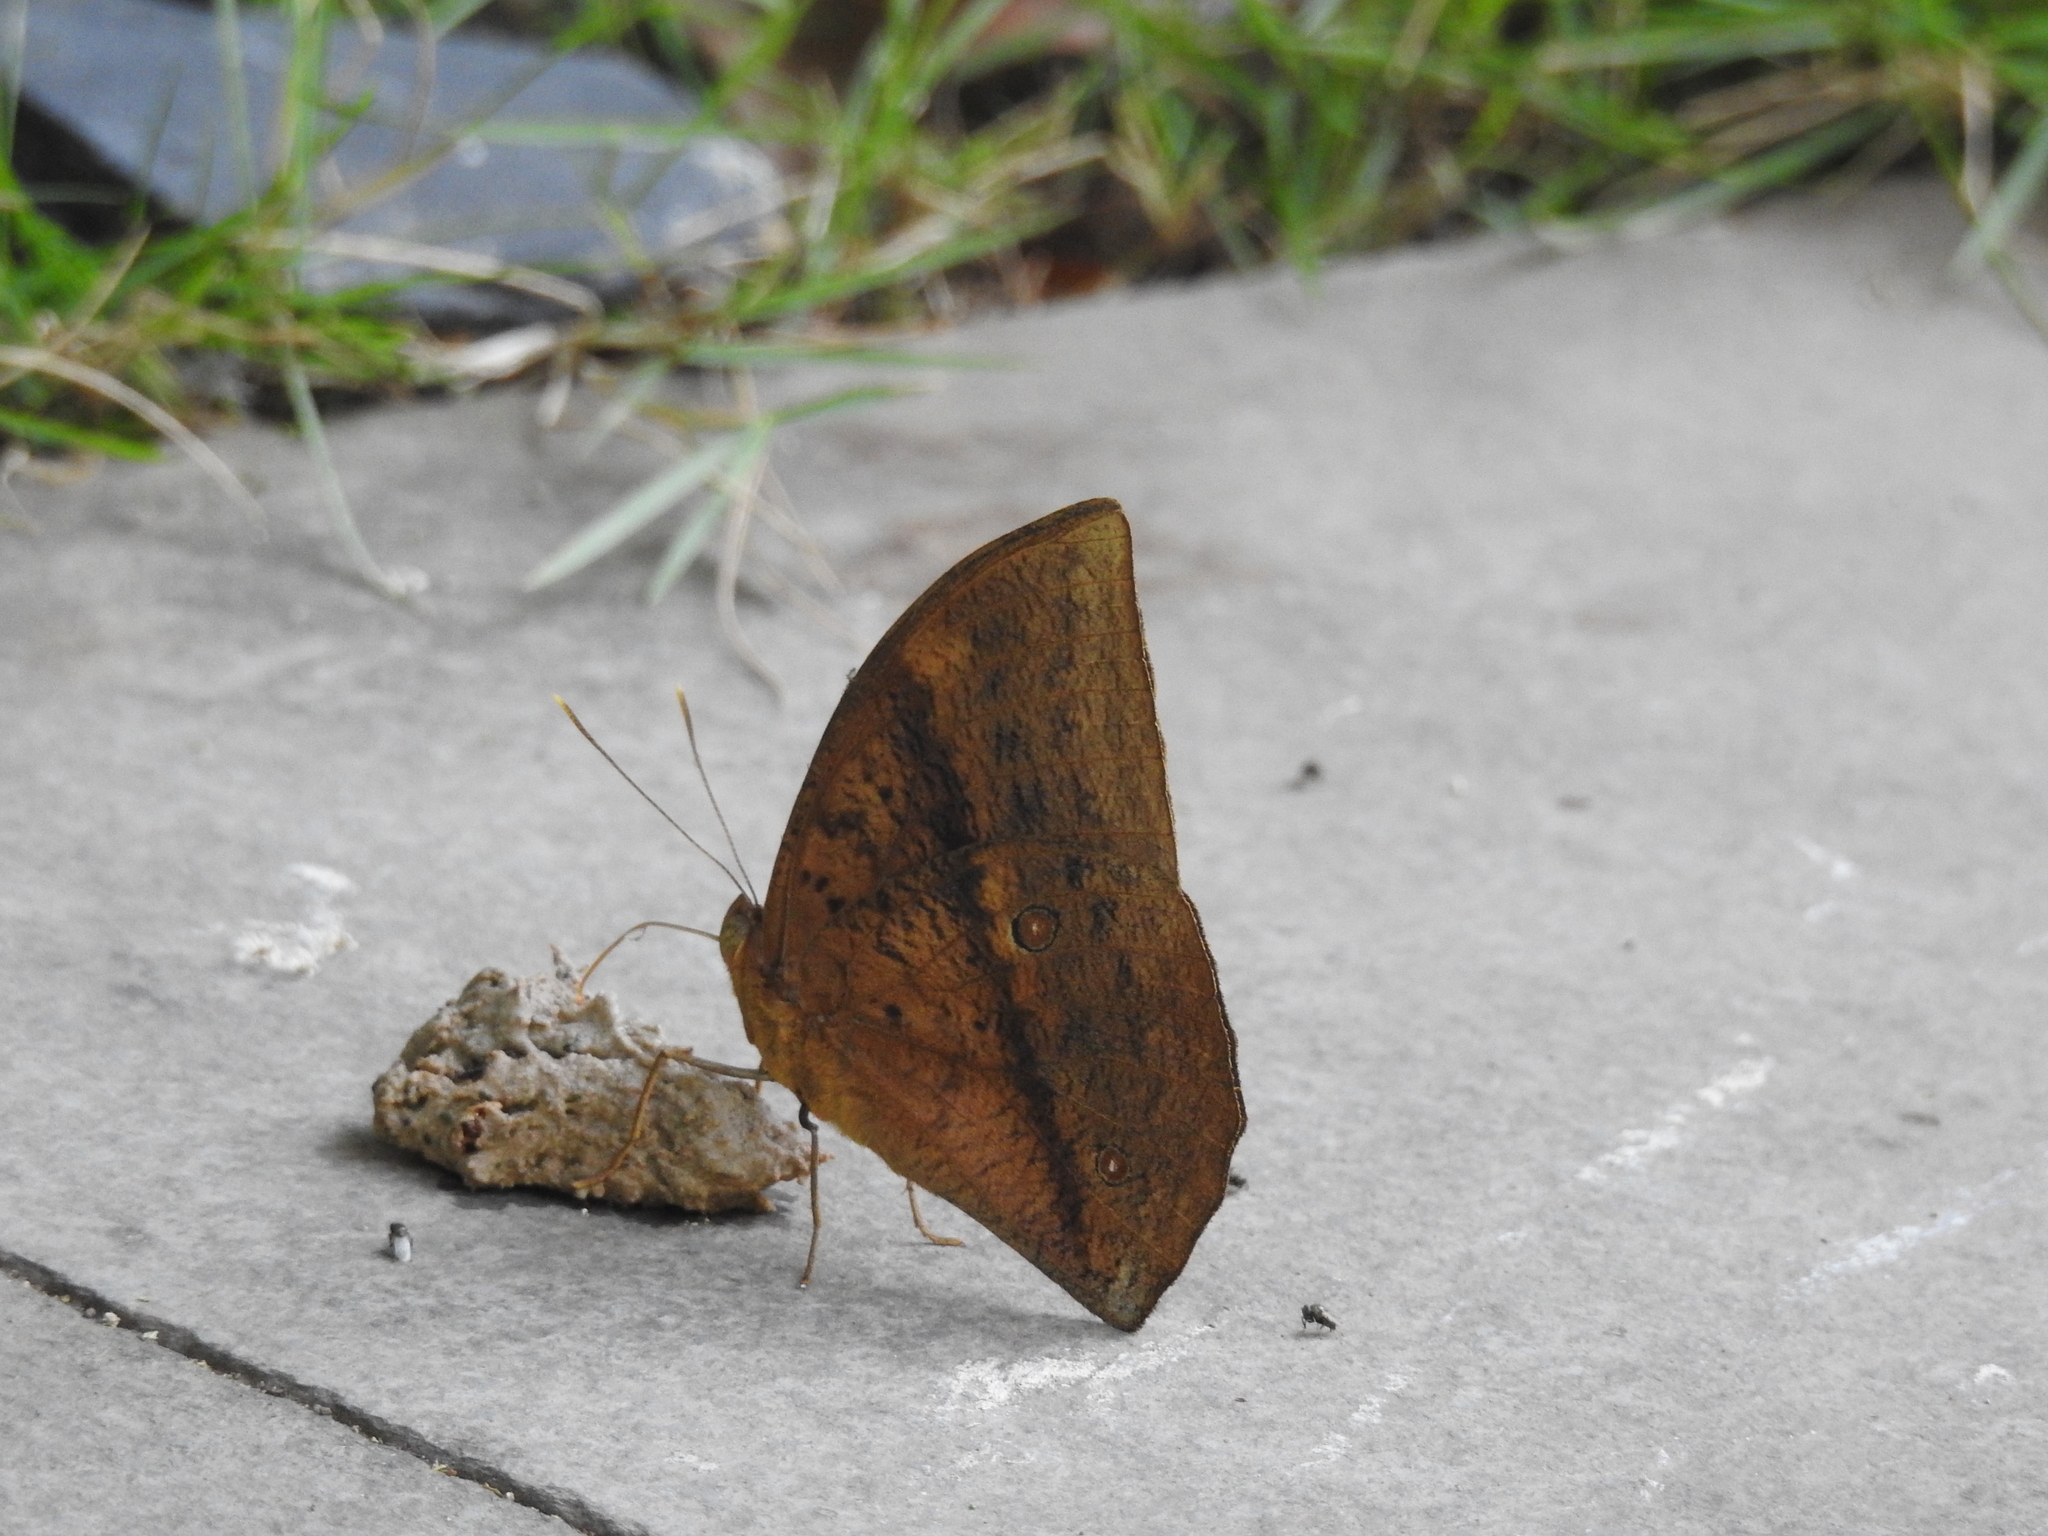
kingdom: Animalia
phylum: Arthropoda
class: Insecta
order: Lepidoptera
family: Nymphalidae
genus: Discophora
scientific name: Discophora sondaica
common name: Common duffer
